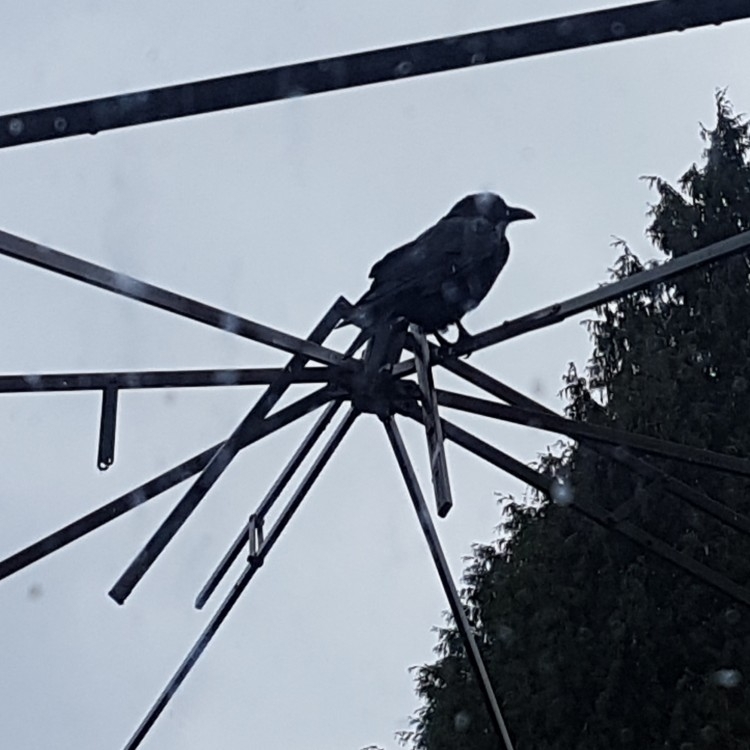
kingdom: Animalia
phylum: Chordata
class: Aves
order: Passeriformes
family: Corvidae
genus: Corvus
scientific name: Corvus brachyrhynchos
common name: American crow
